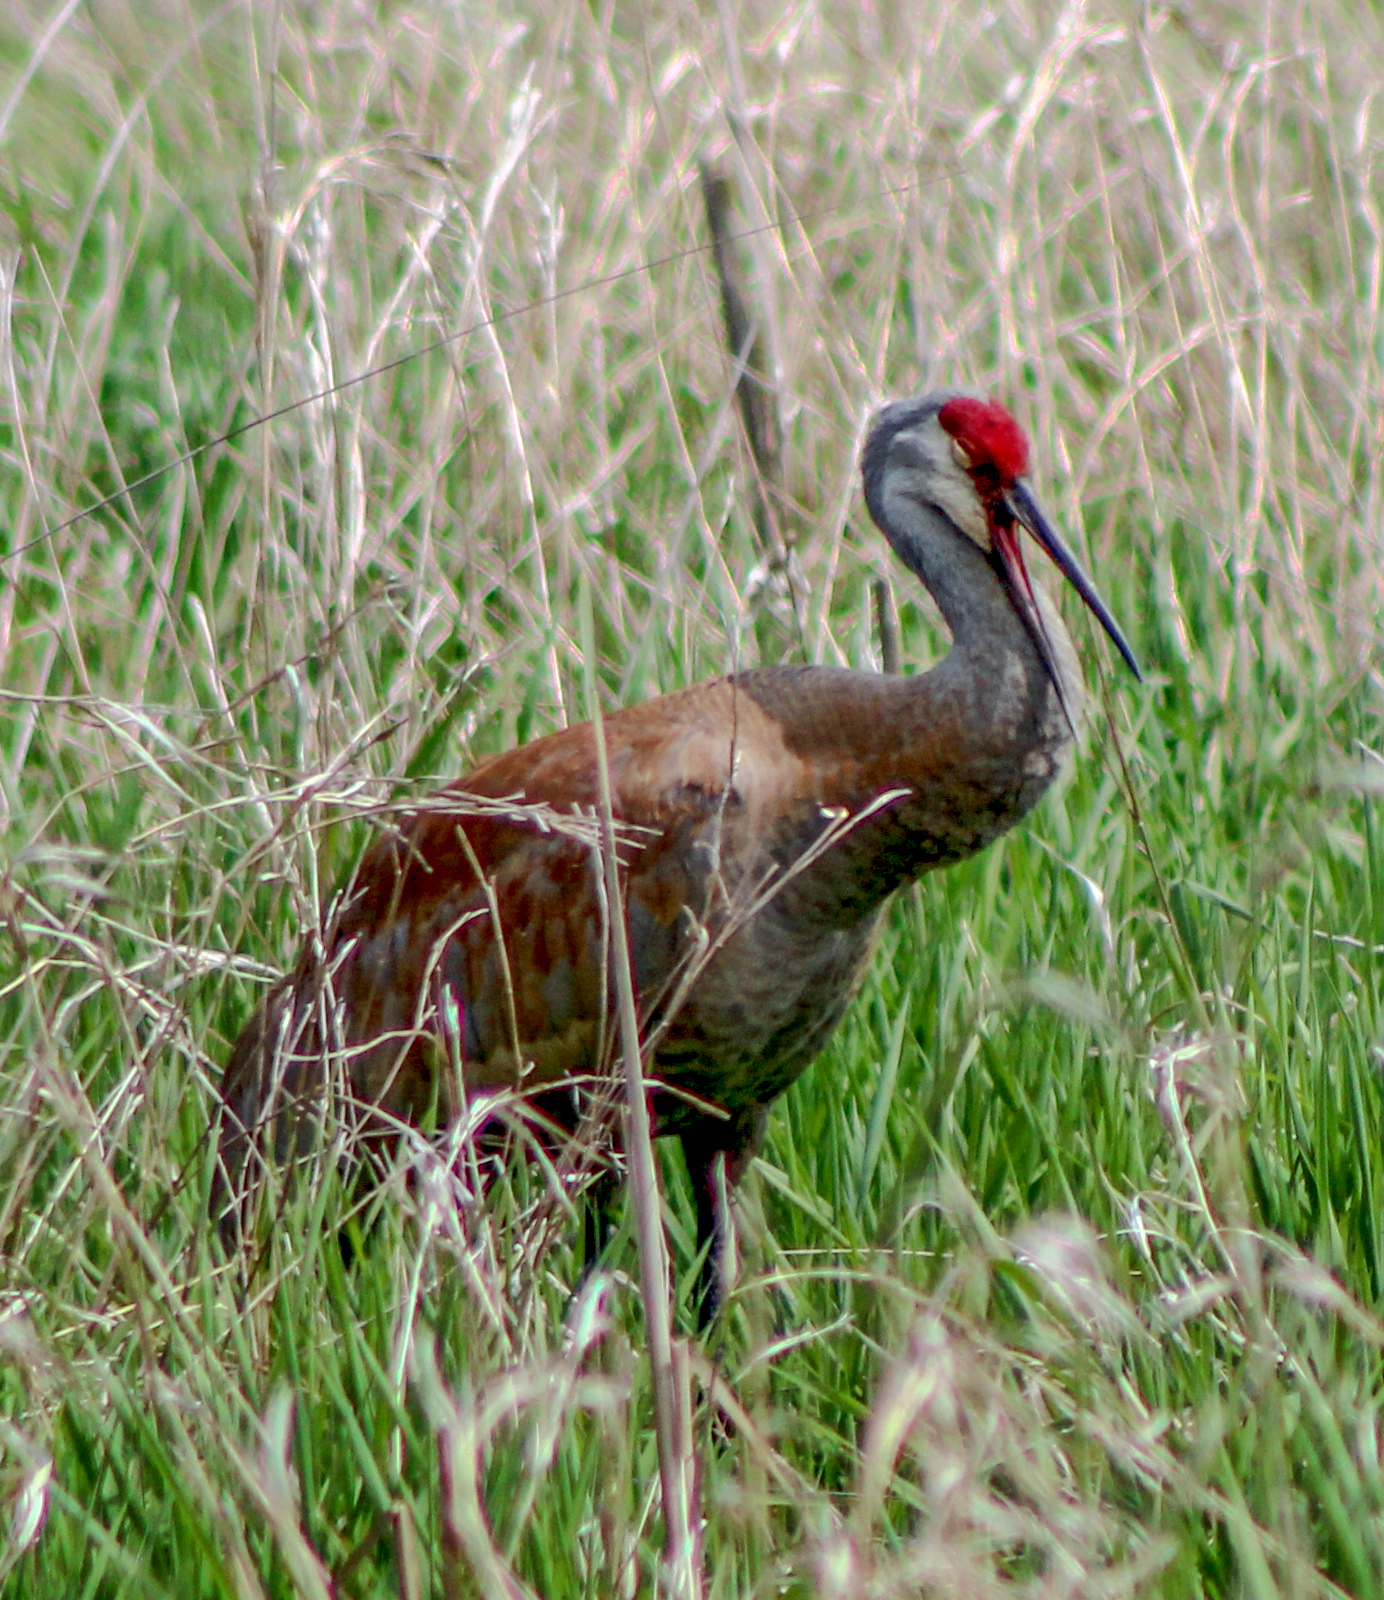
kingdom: Animalia
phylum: Chordata
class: Aves
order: Gruiformes
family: Gruidae
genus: Grus
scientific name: Grus canadensis
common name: Sandhill crane
